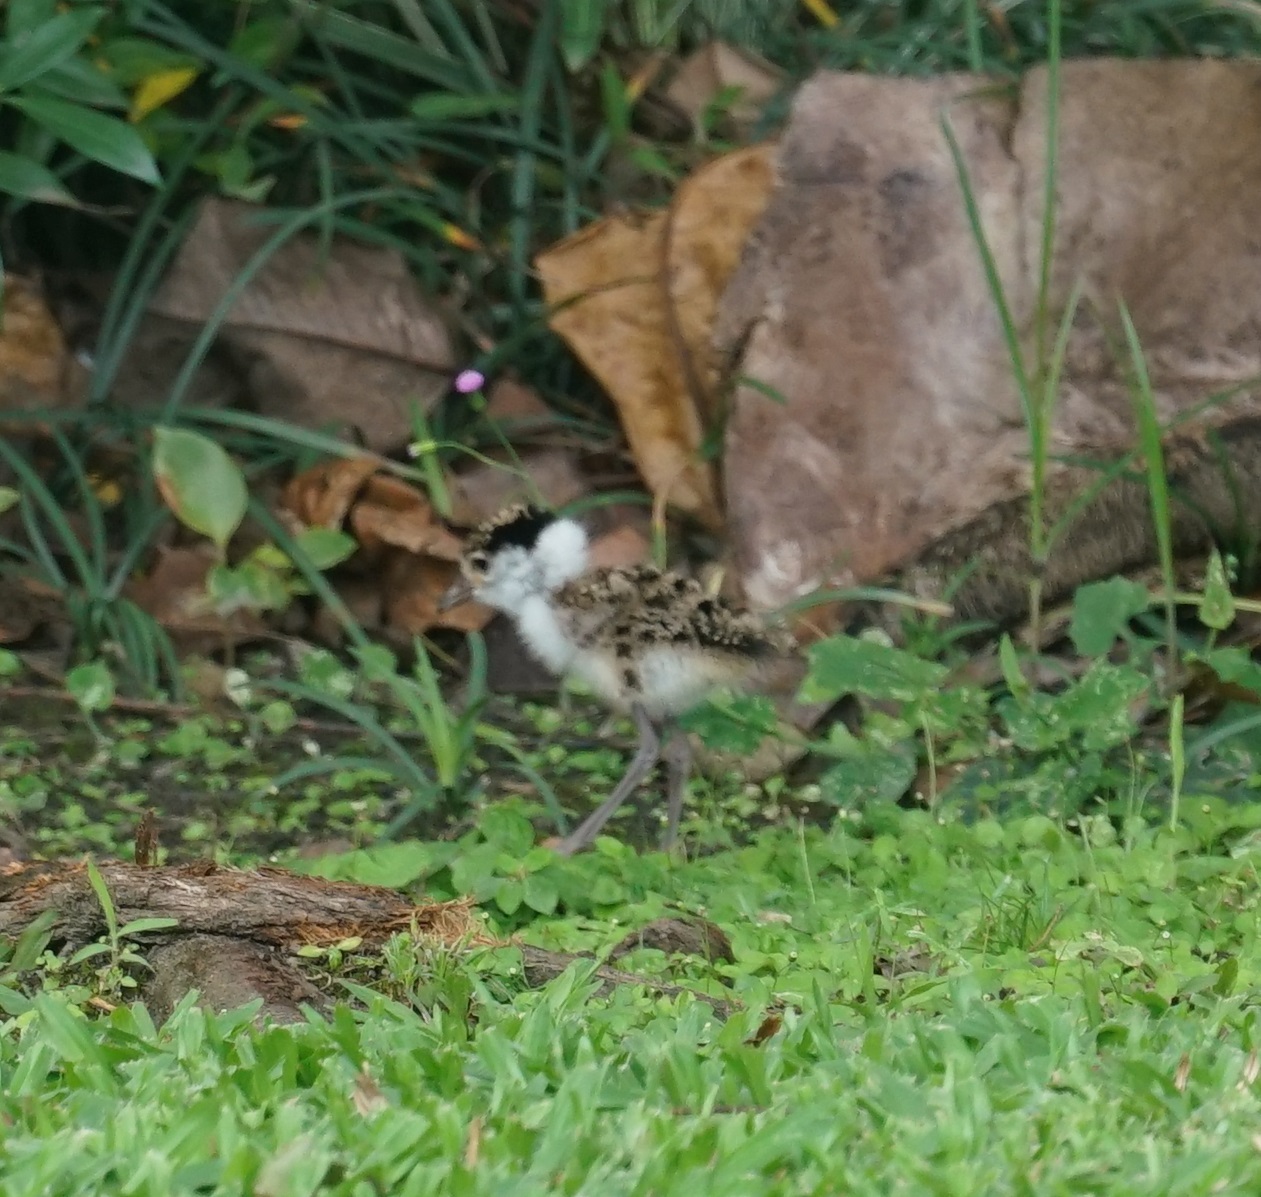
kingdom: Animalia
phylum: Chordata
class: Aves
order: Charadriiformes
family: Charadriidae
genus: Vanellus
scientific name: Vanellus miles
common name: Masked lapwing
